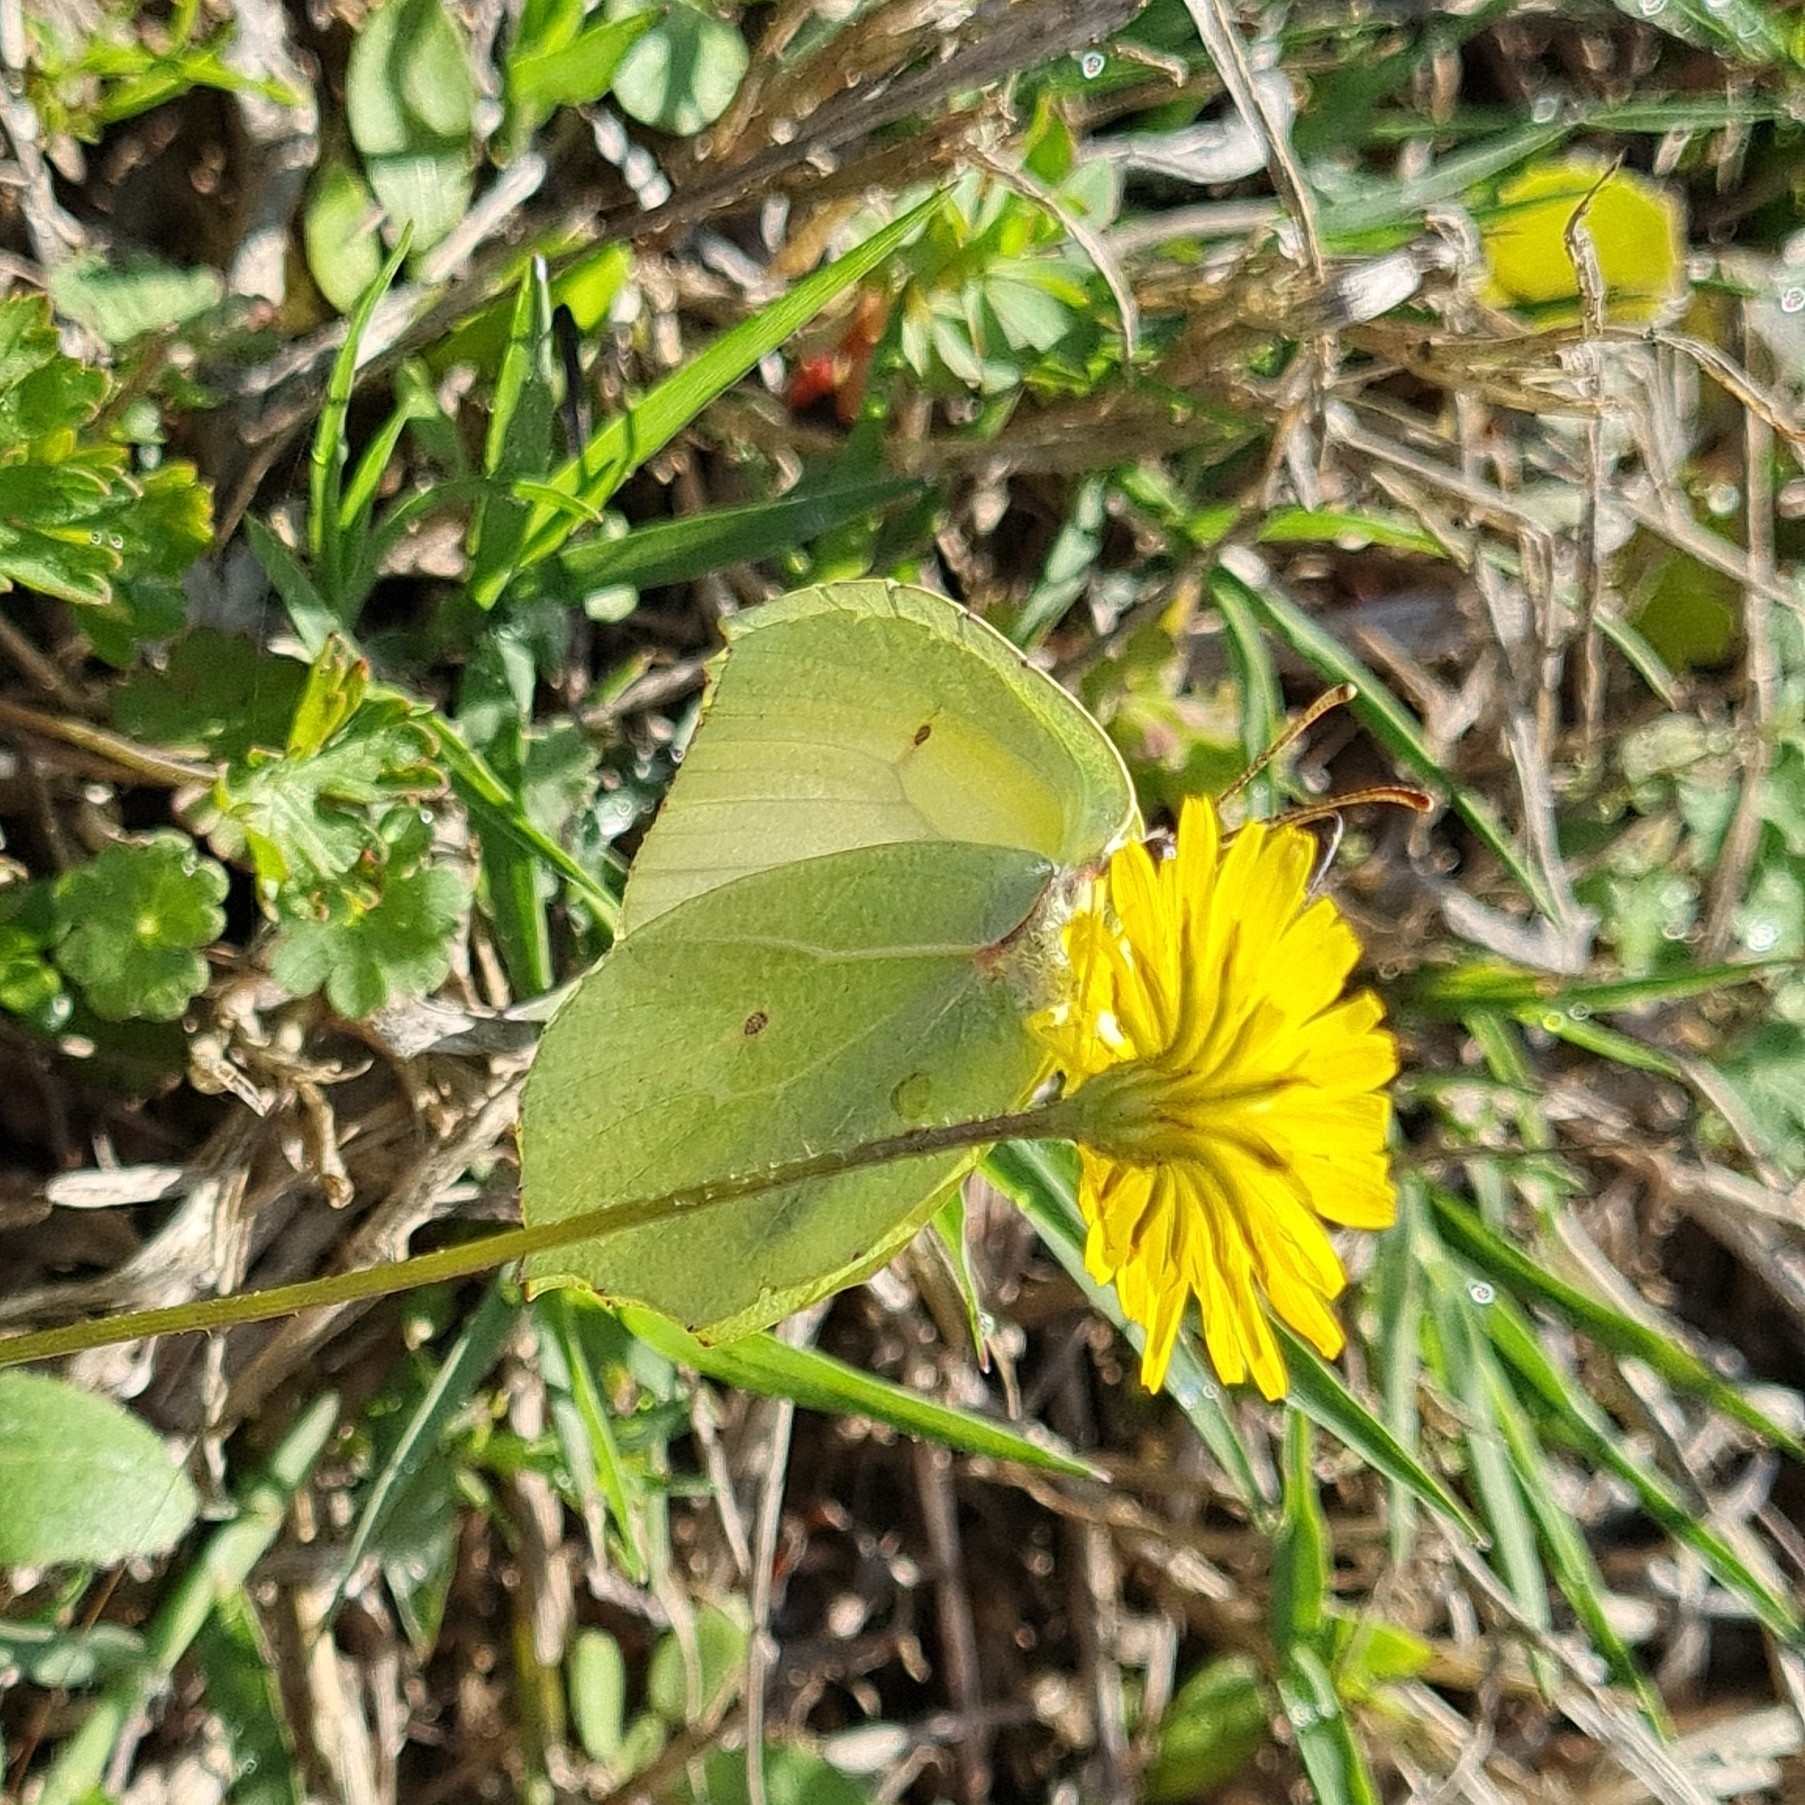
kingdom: Animalia
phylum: Arthropoda
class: Insecta
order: Lepidoptera
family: Pieridae
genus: Gonepteryx
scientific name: Gonepteryx cleopatra
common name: Cleopatra
